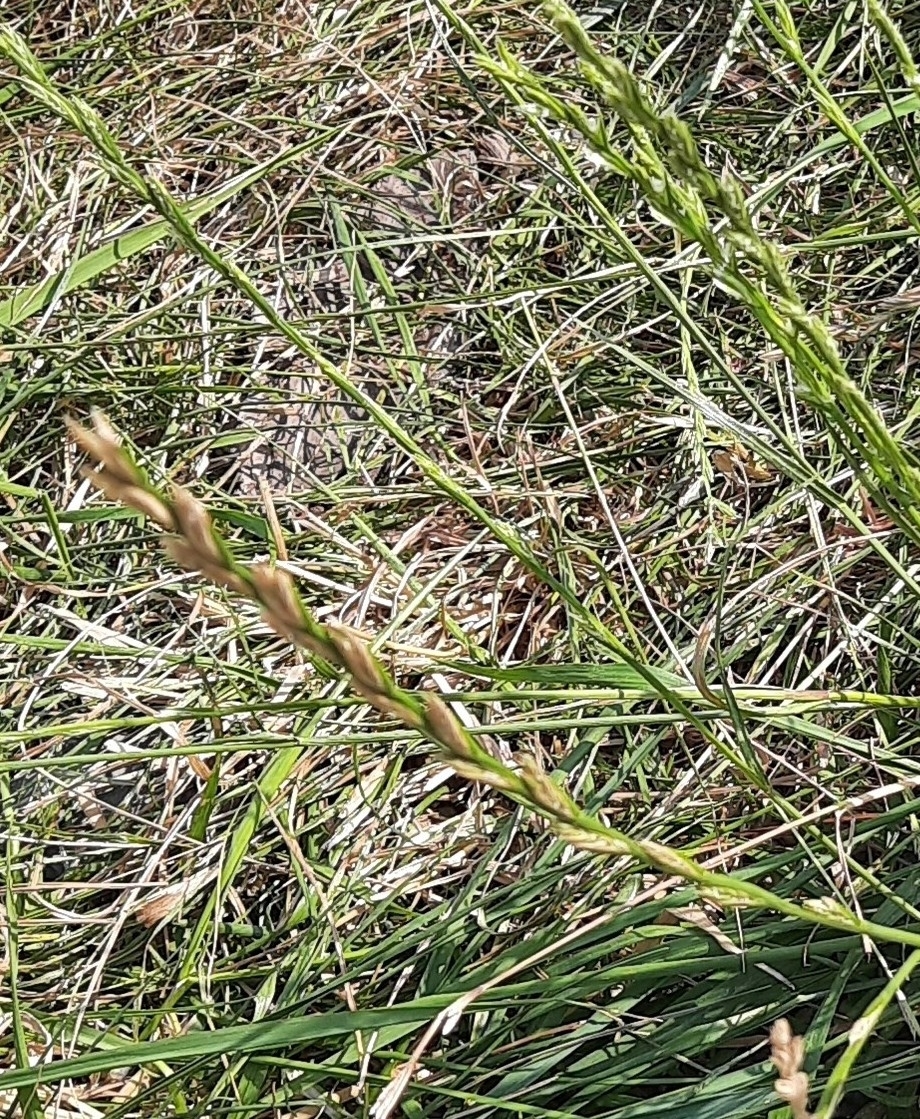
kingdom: Plantae
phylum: Tracheophyta
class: Liliopsida
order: Poales
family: Poaceae
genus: Lolium
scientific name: Lolium perenne
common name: Perennial ryegrass
